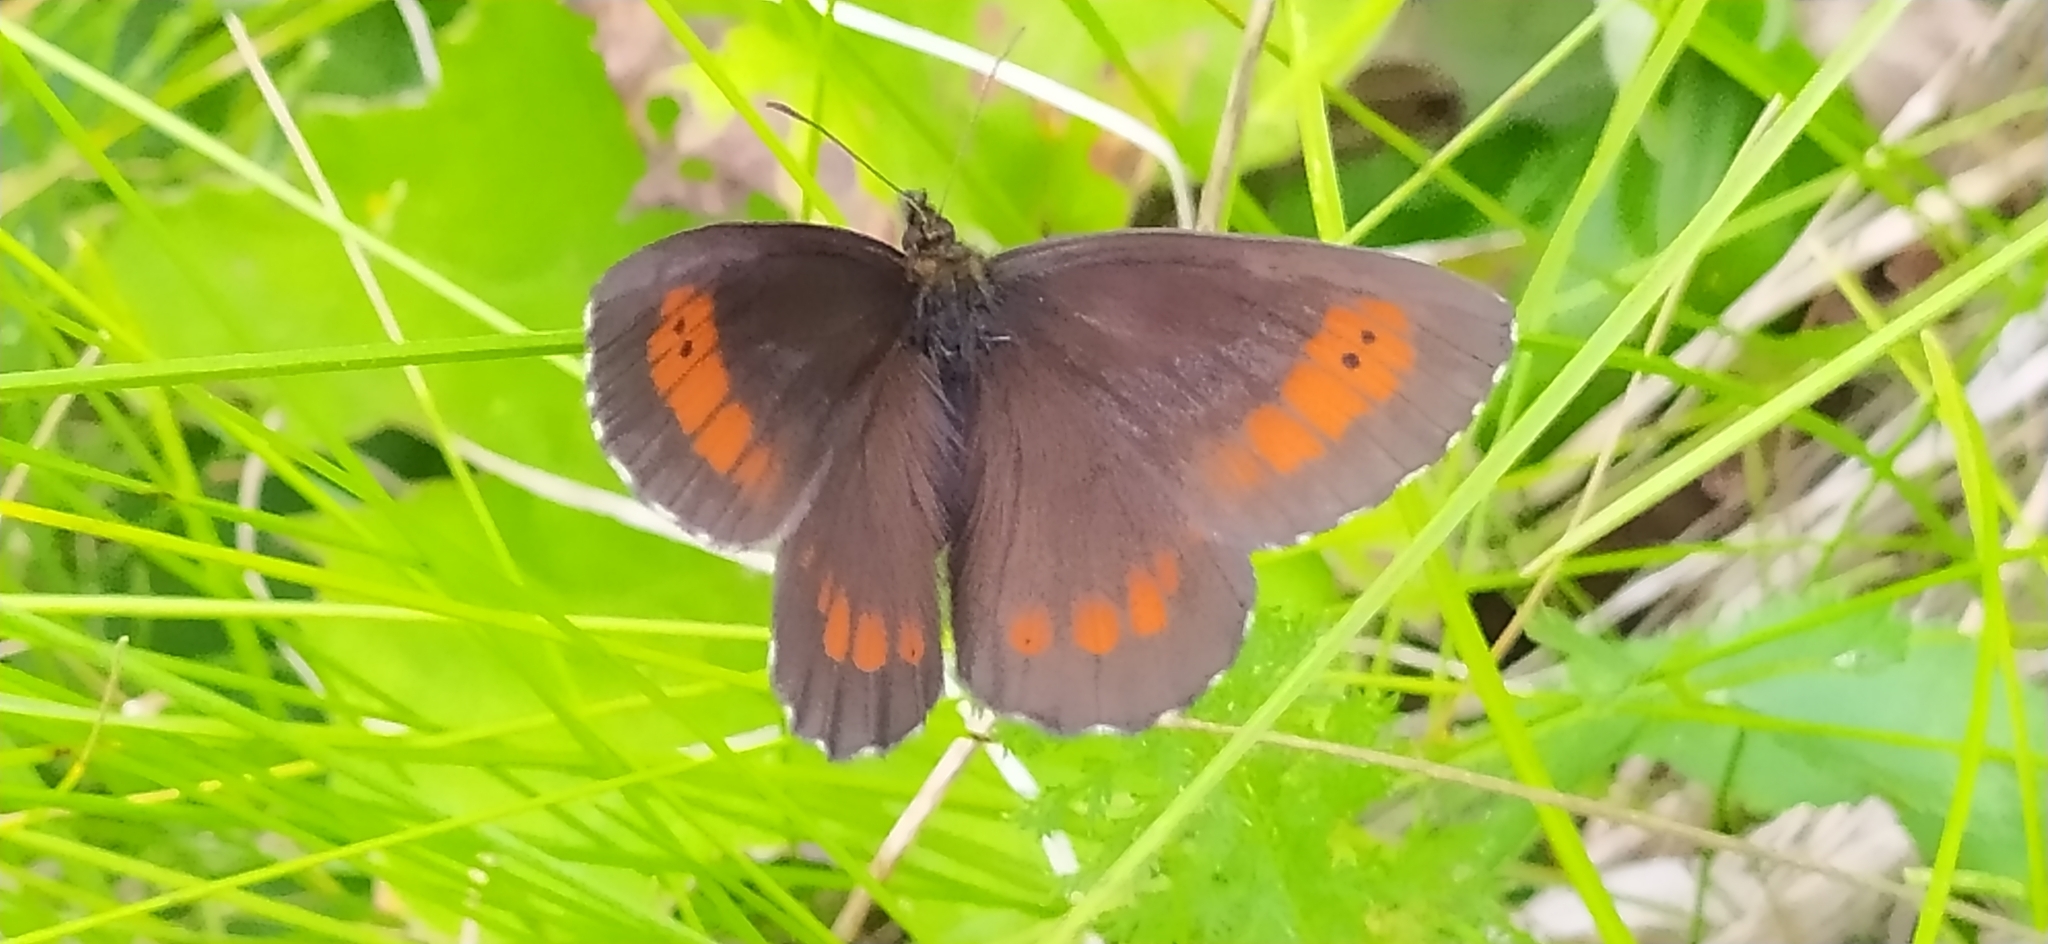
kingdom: Animalia
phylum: Arthropoda
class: Insecta
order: Lepidoptera
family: Nymphalidae
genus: Erebia
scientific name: Erebia euryale
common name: Large ringlet
